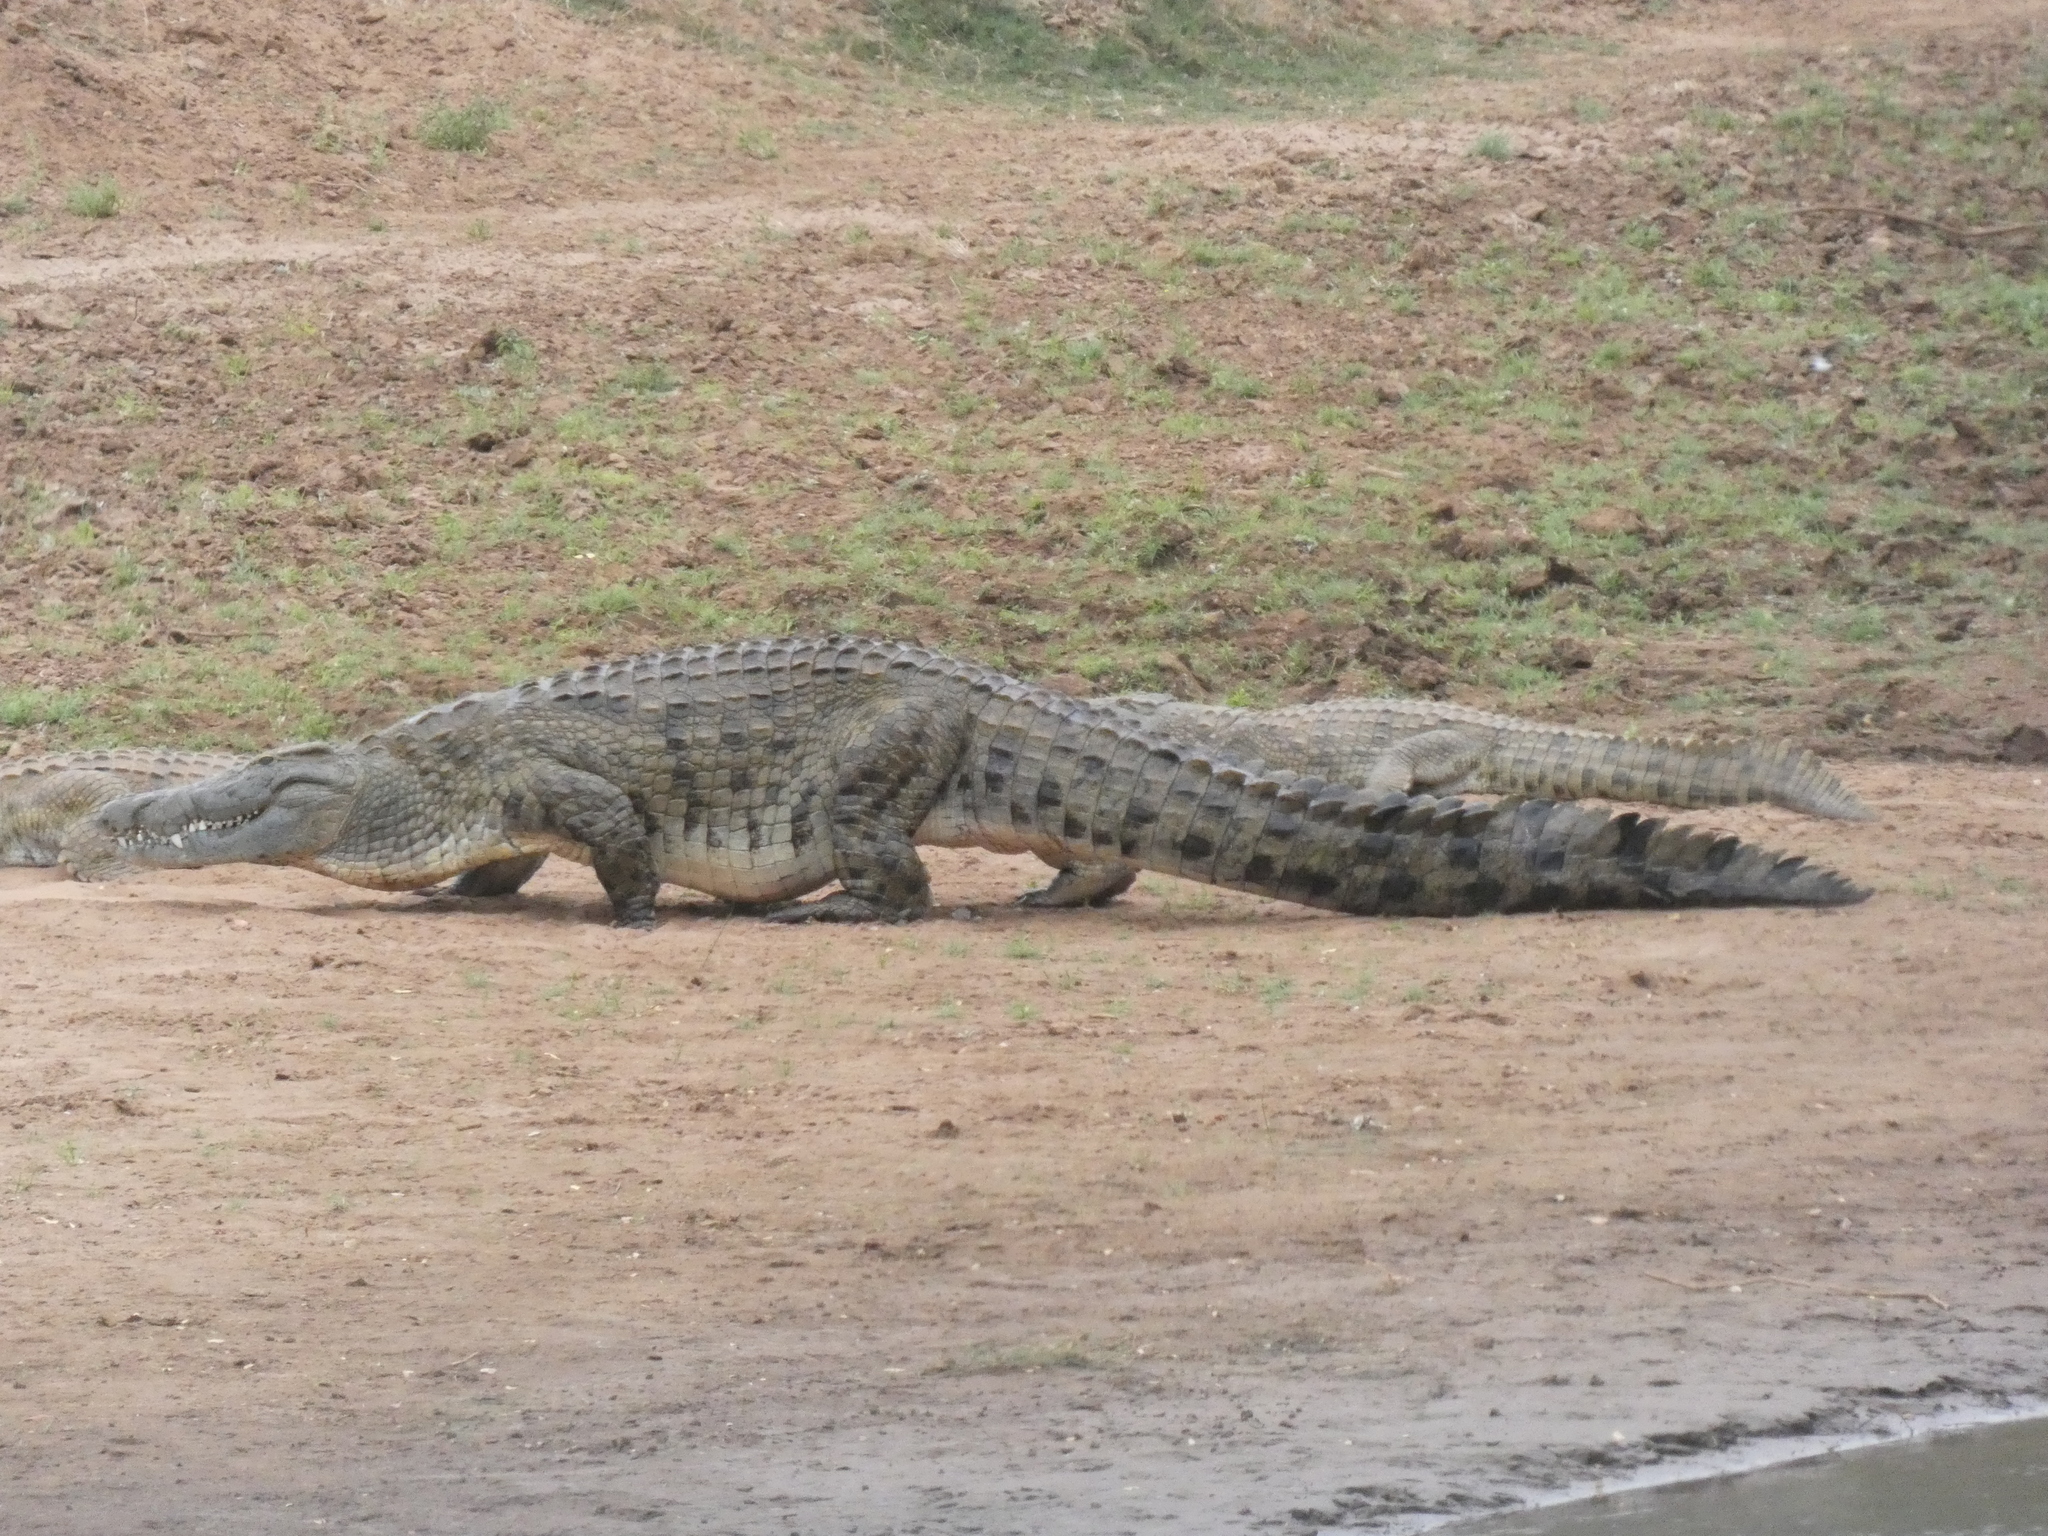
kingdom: Animalia
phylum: Chordata
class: Crocodylia
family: Crocodylidae
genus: Crocodylus
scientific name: Crocodylus niloticus
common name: Nile crocodile
